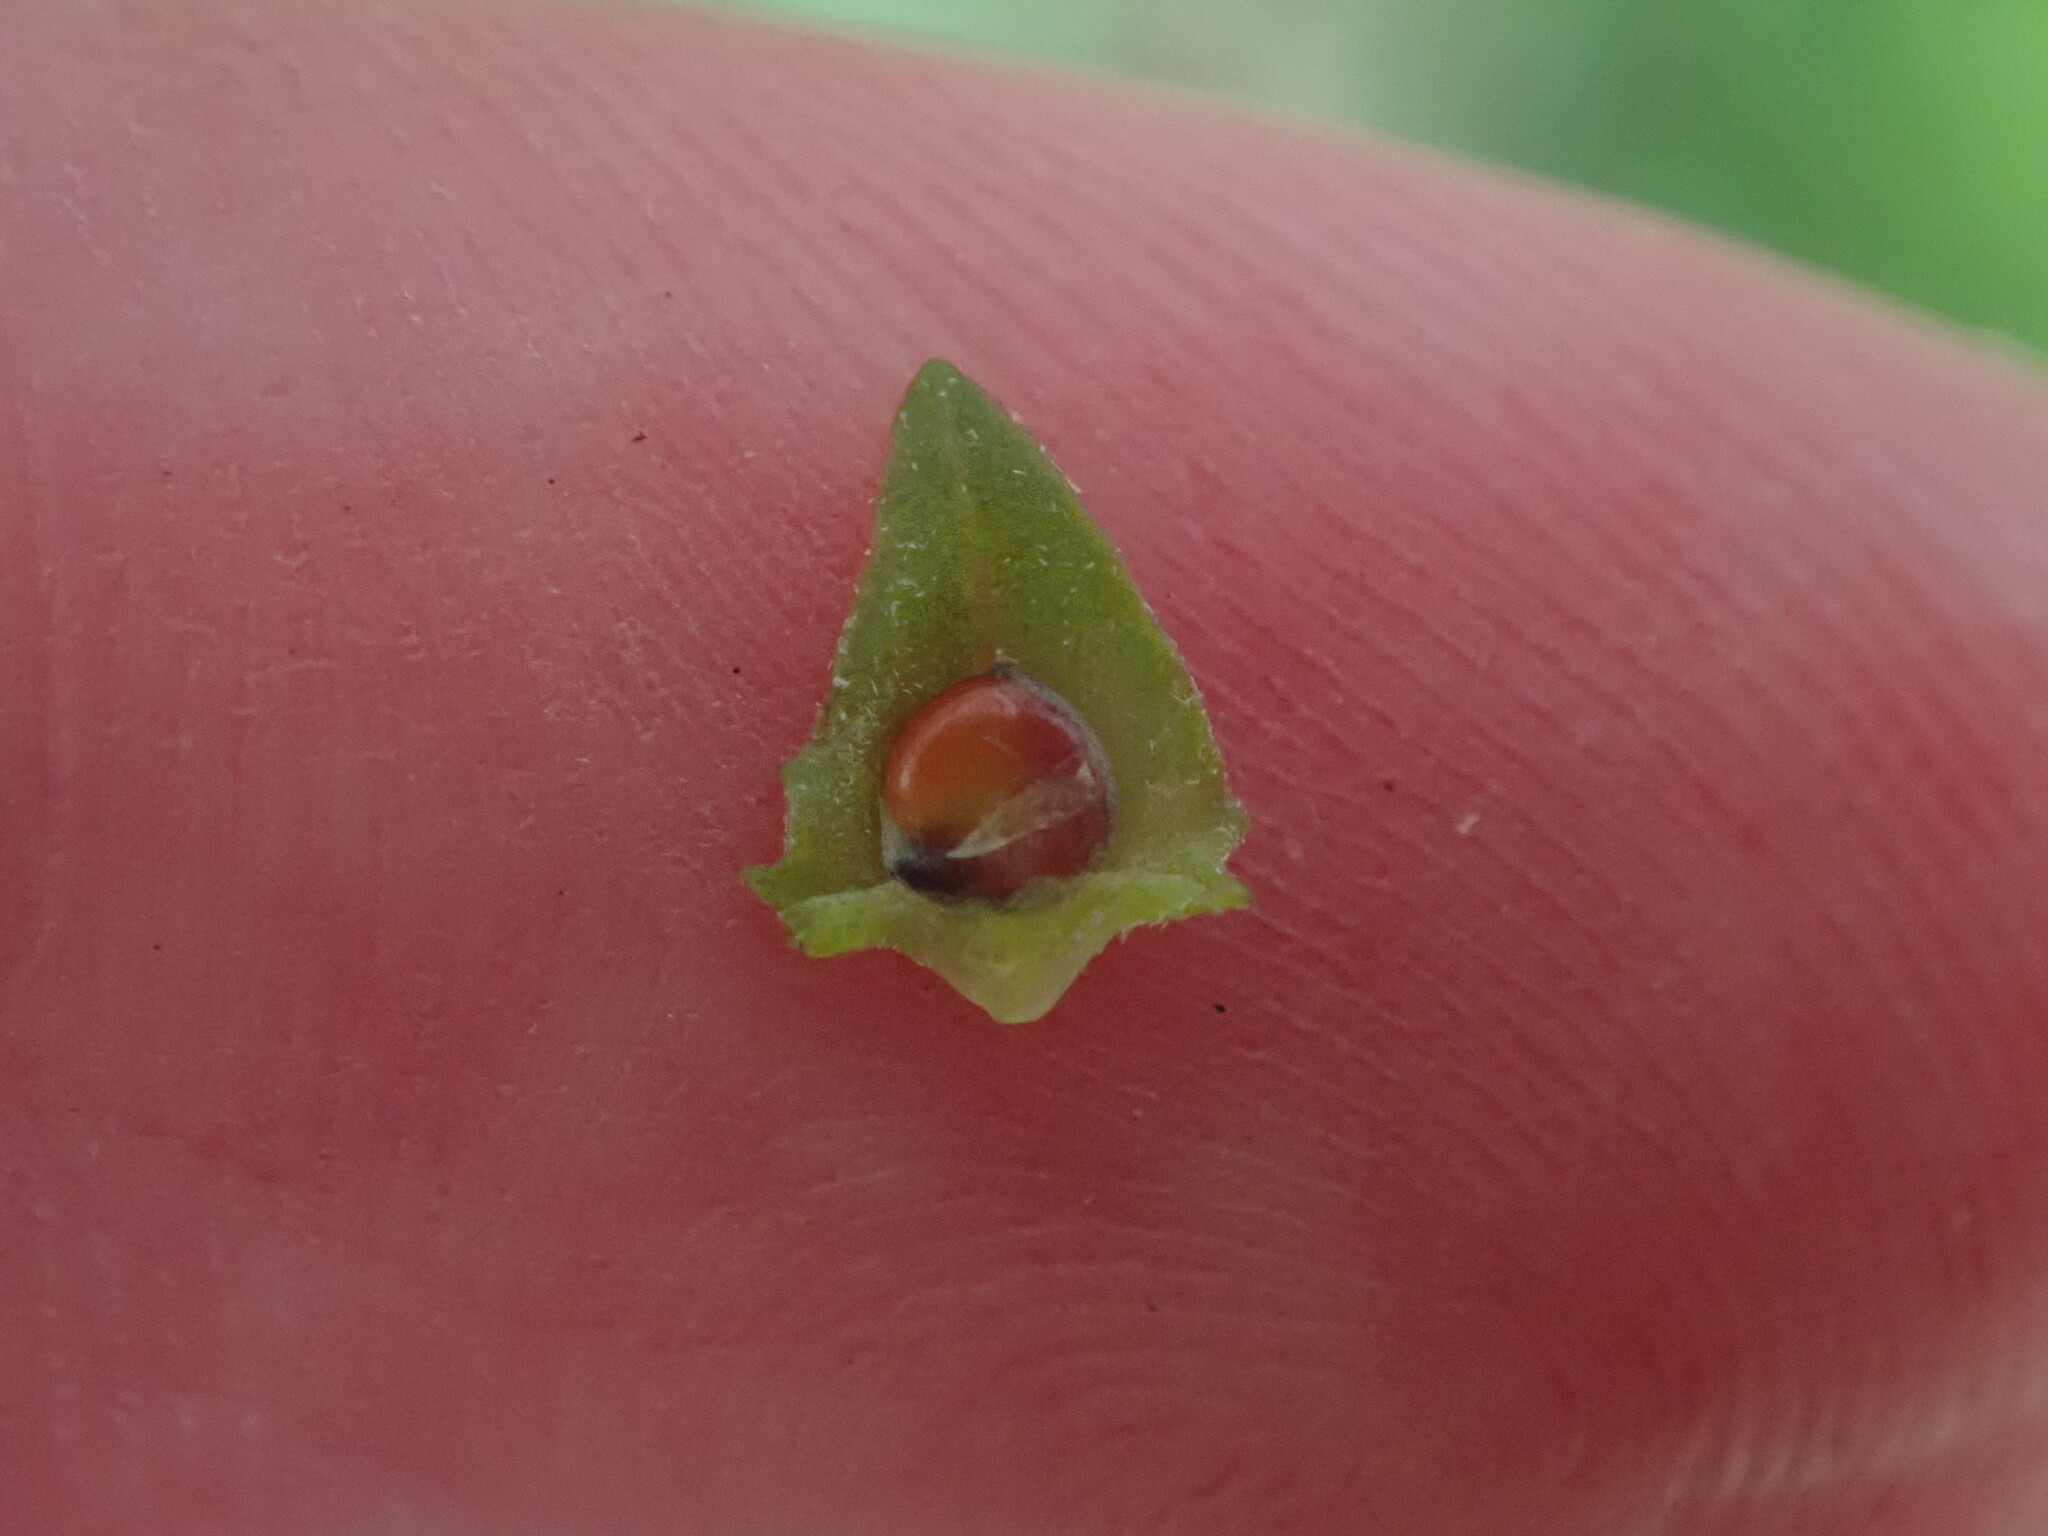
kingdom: Plantae
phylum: Tracheophyta
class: Magnoliopsida
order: Caryophyllales
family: Amaranthaceae
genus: Atriplex
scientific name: Atriplex prostrata
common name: Spear-leaved orache
